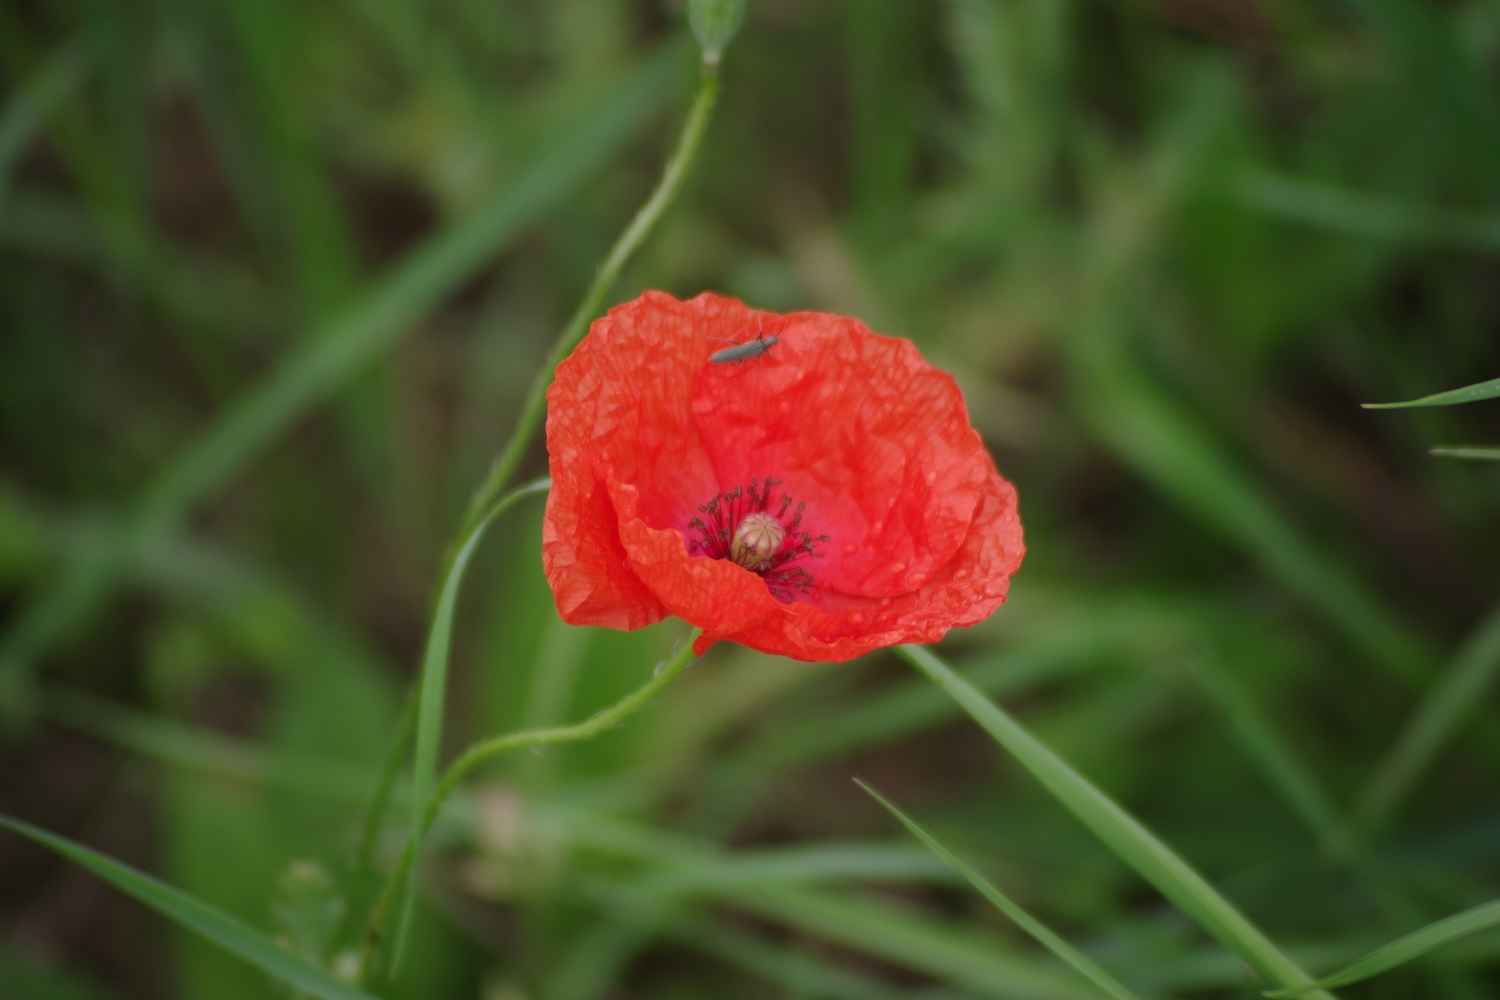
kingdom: Plantae
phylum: Tracheophyta
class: Magnoliopsida
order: Ranunculales
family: Papaveraceae
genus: Papaver
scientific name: Papaver rhoeas
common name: Corn poppy
